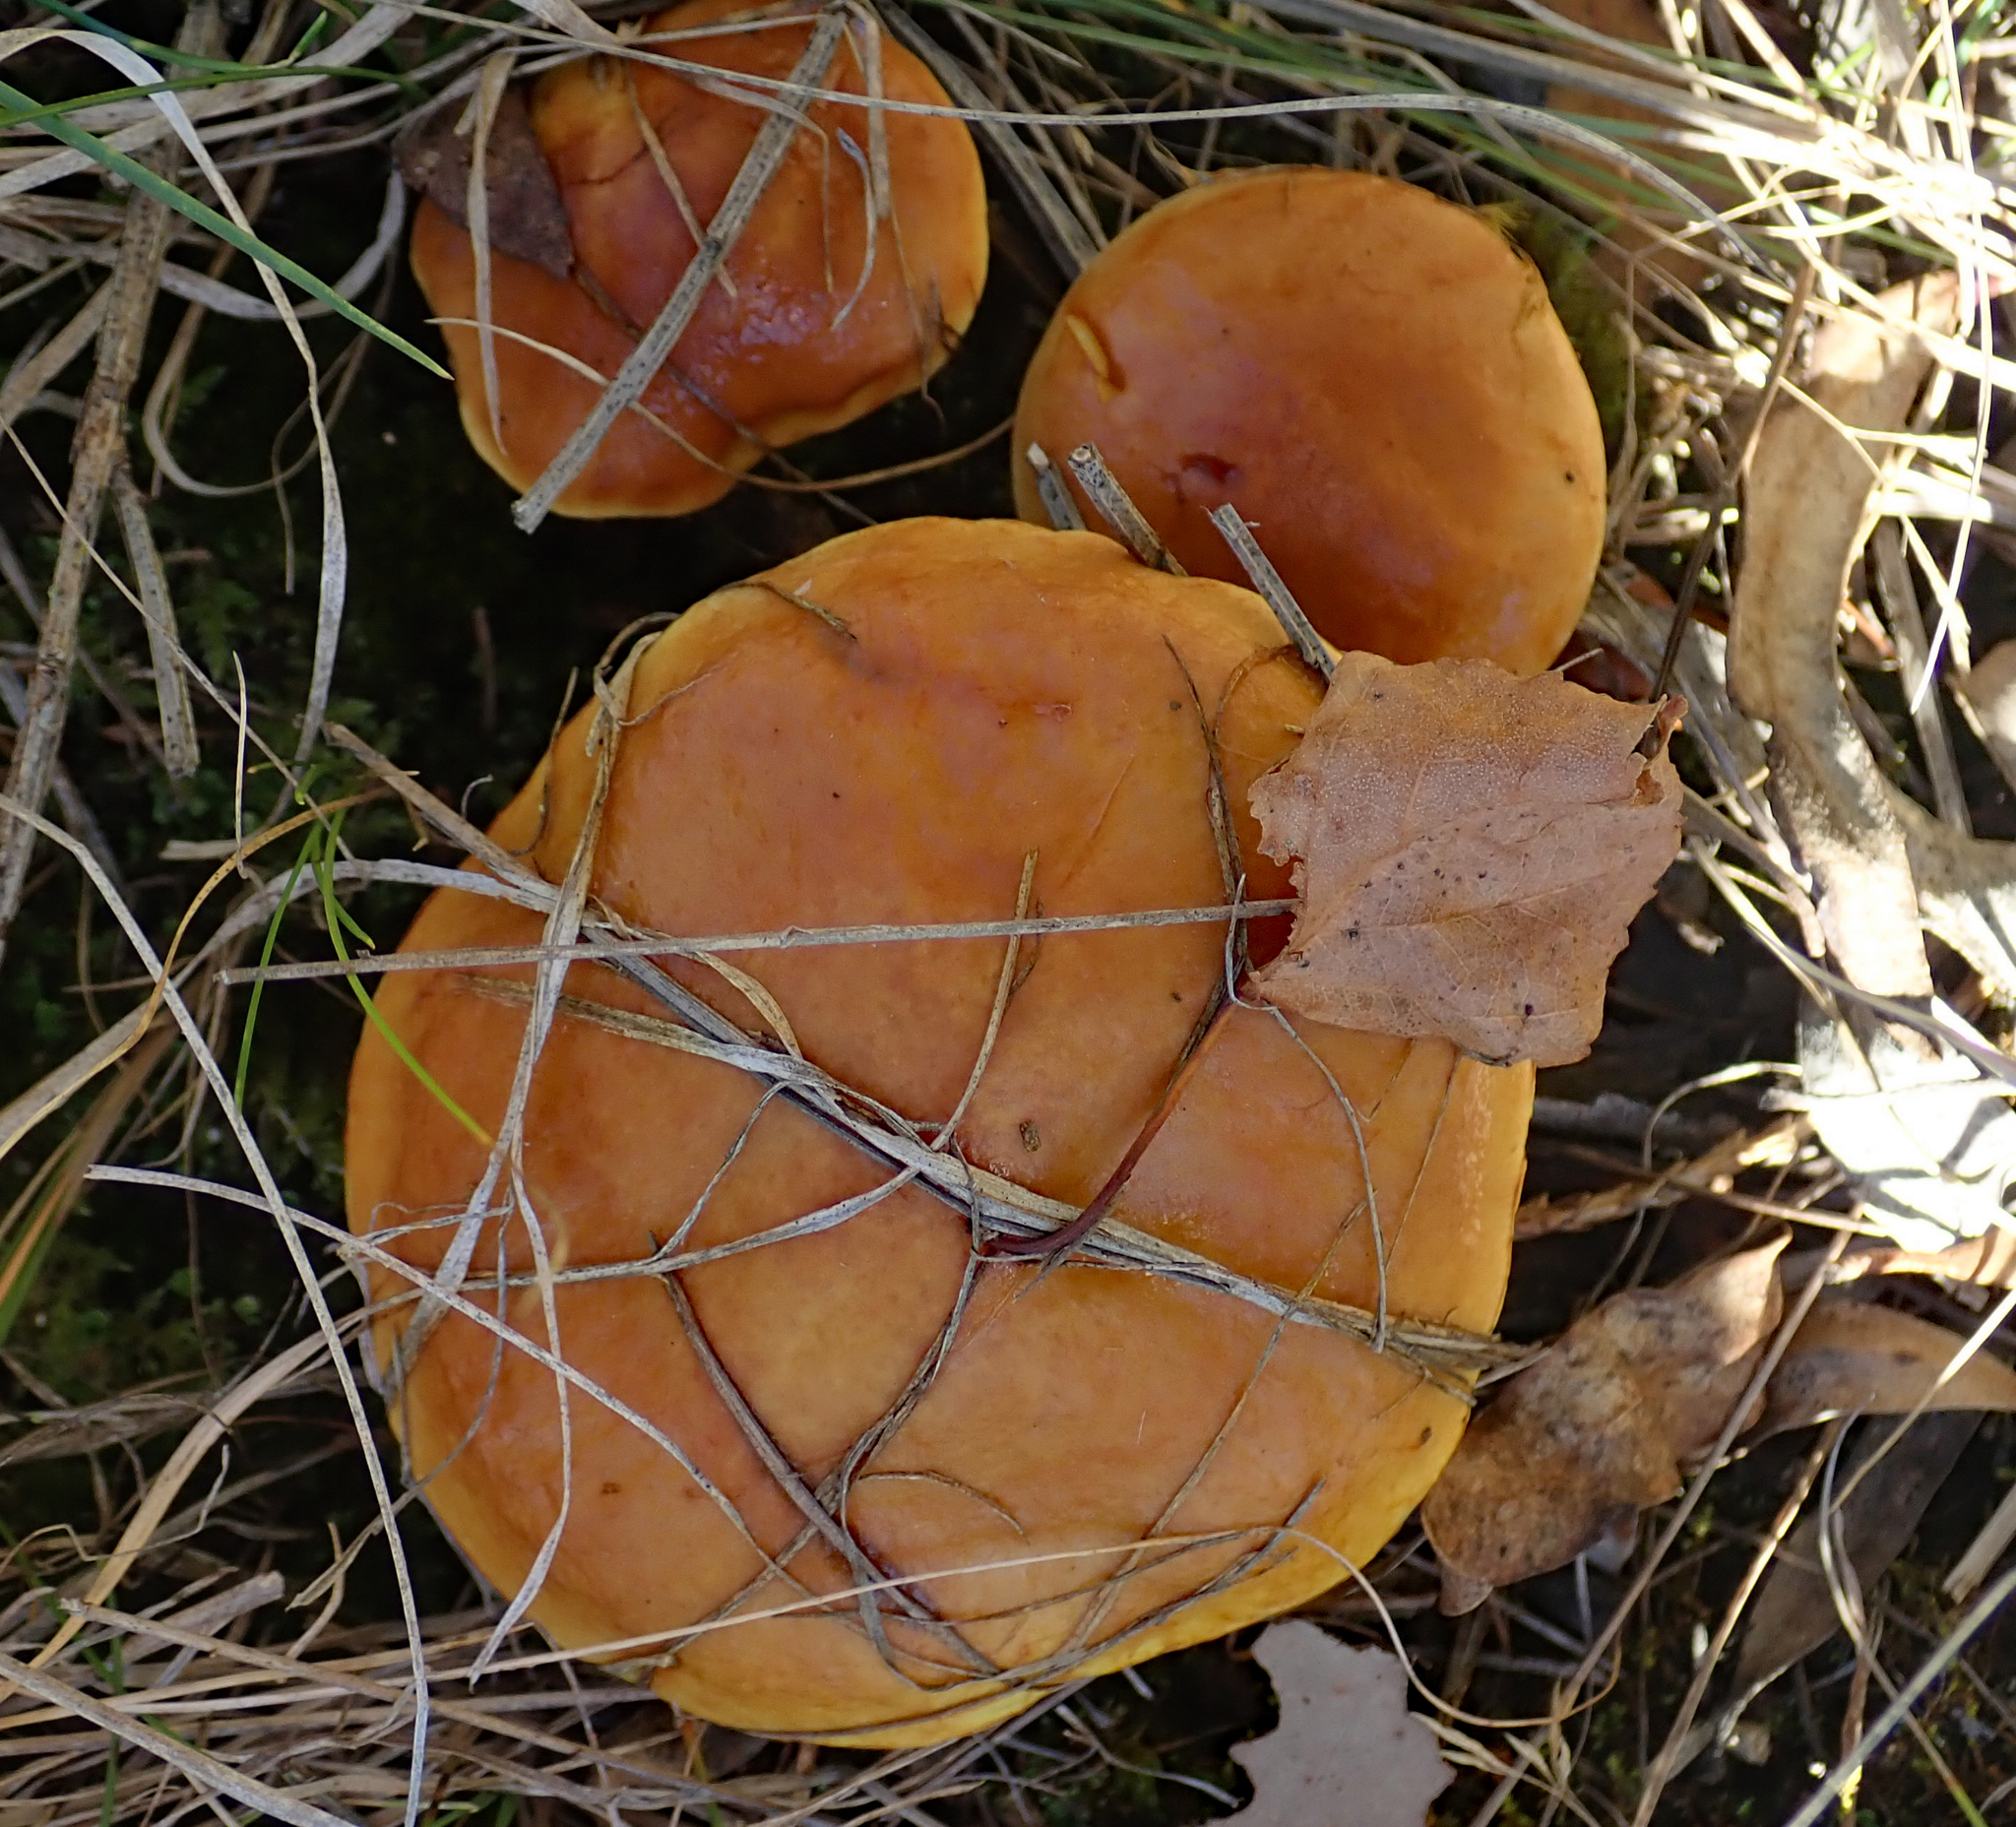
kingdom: Fungi
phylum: Basidiomycota
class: Agaricomycetes
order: Boletales
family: Suillaceae
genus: Suillus
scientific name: Suillus grevillei
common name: Larch bolete
